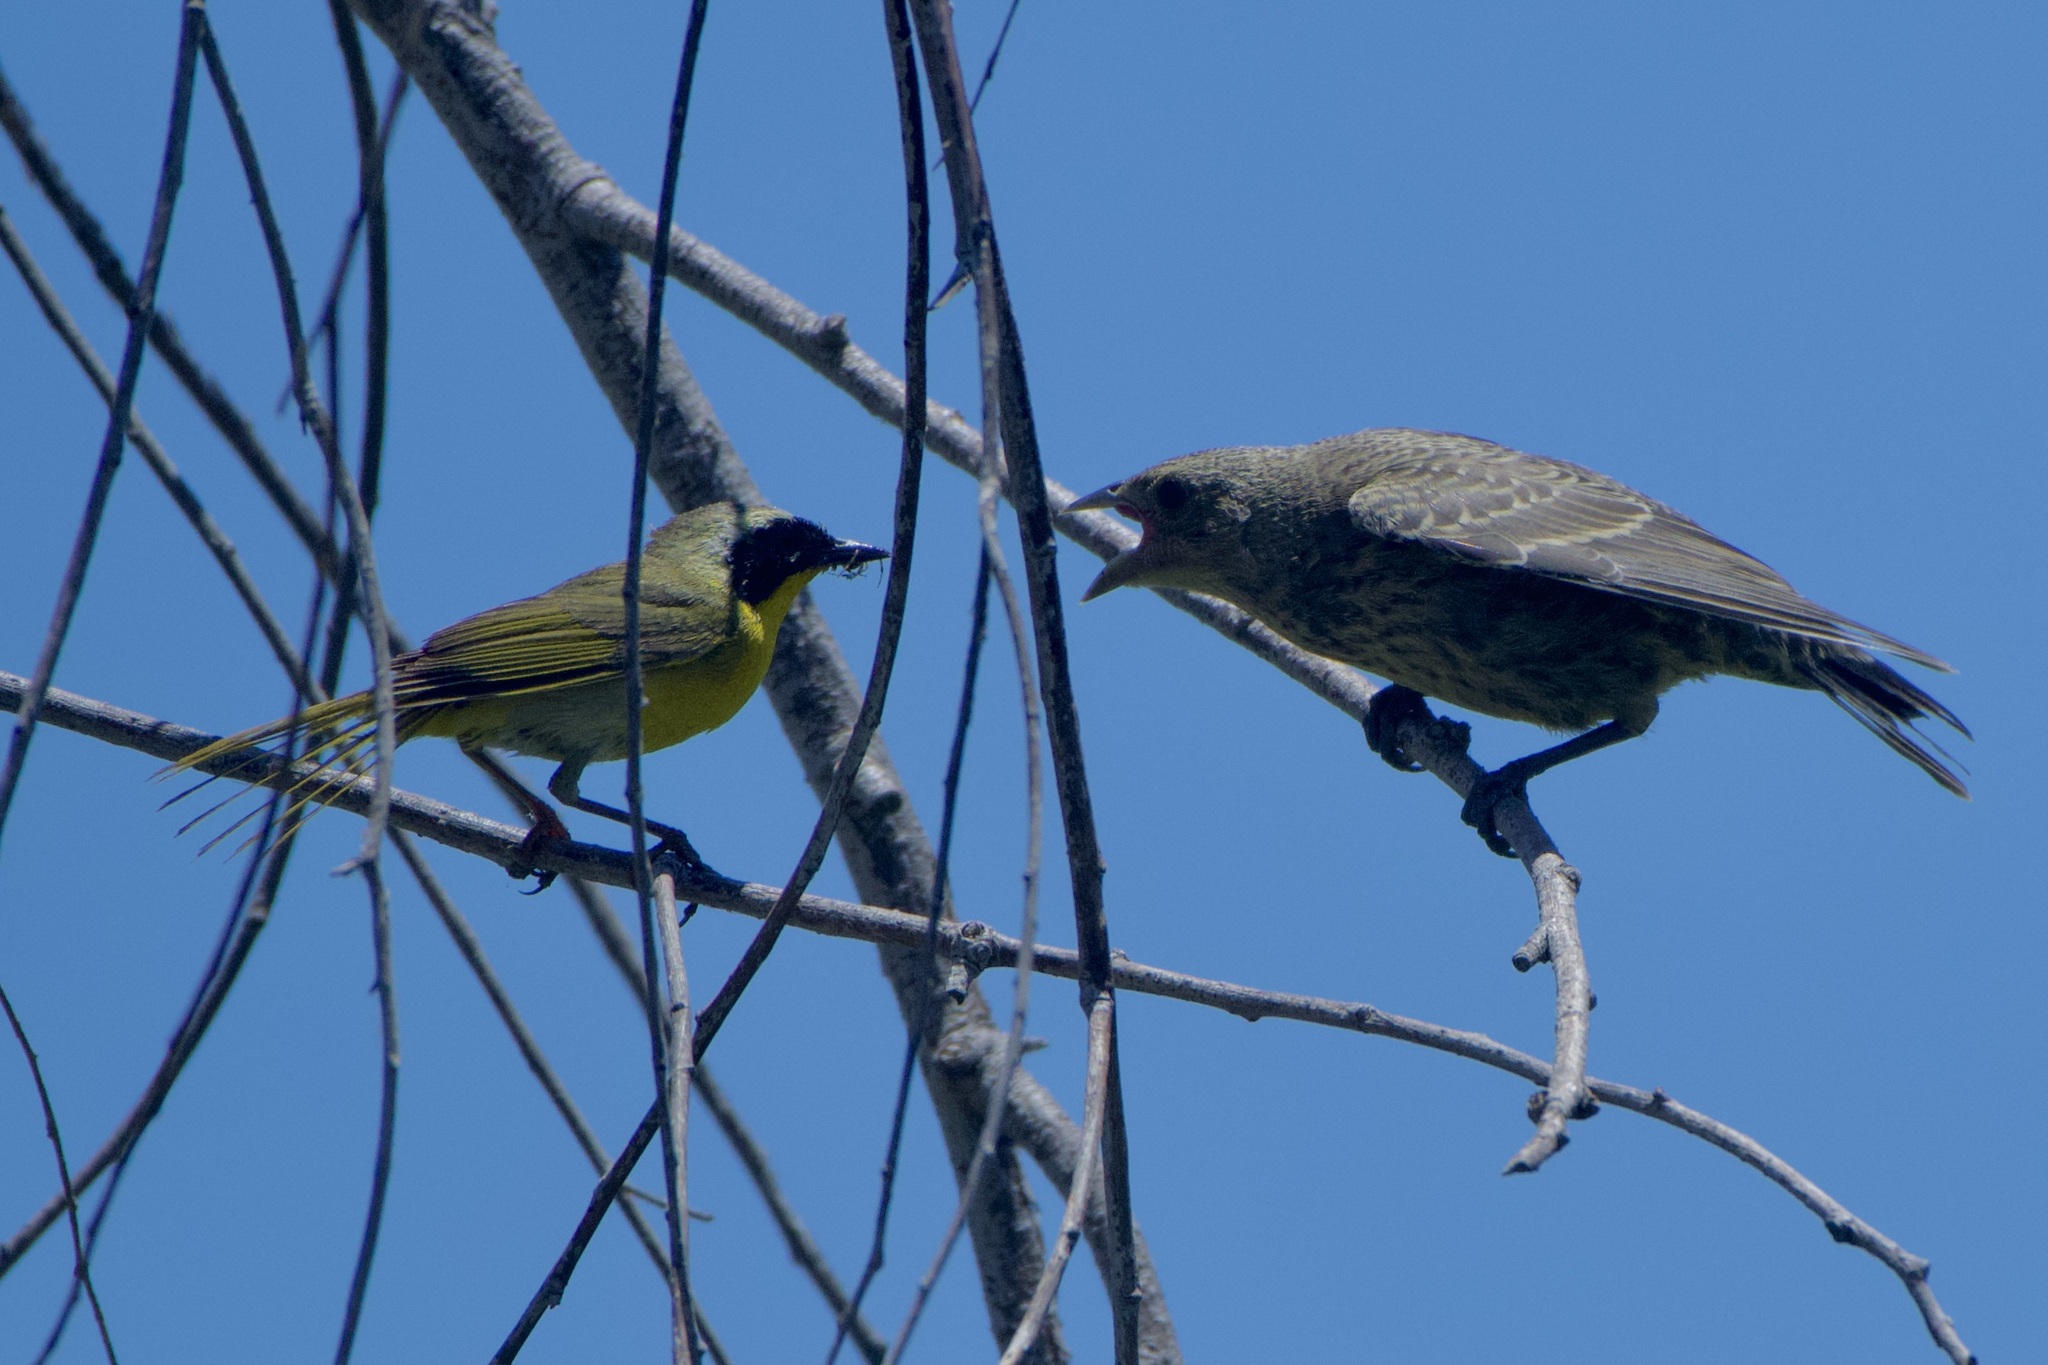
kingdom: Animalia
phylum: Chordata
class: Aves
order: Passeriformes
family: Icteridae
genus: Molothrus
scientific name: Molothrus ater
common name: Brown-headed cowbird
